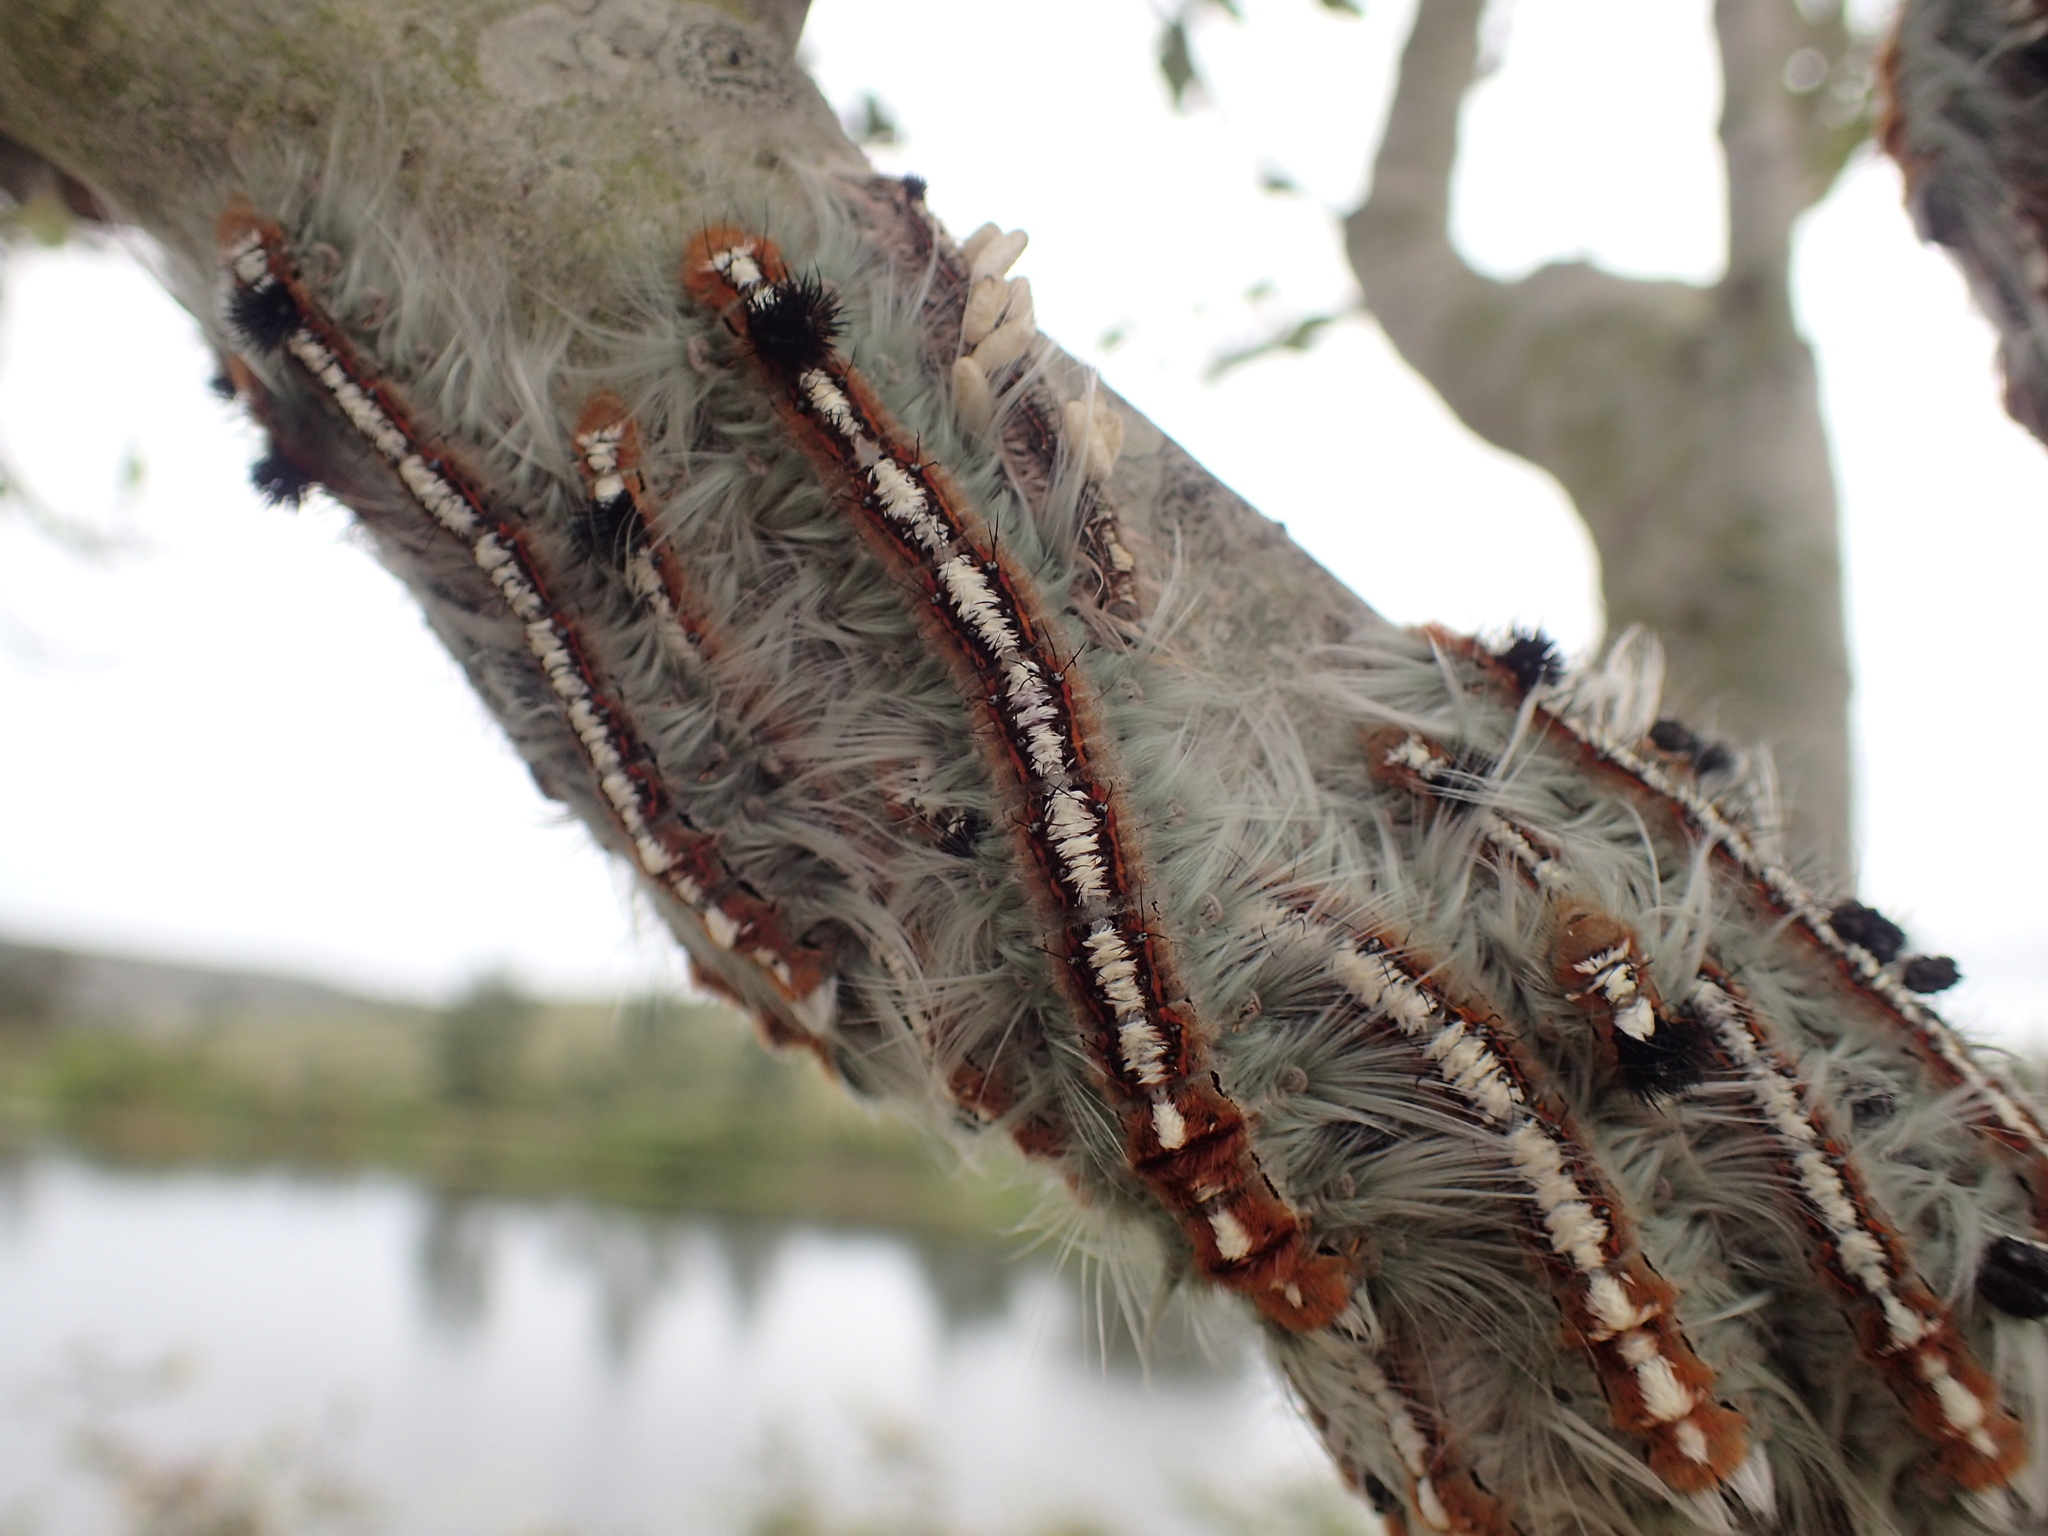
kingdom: Animalia
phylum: Arthropoda
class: Insecta
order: Lepidoptera
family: Lasiocampidae
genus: Eutricha
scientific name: Eutricha obscura
